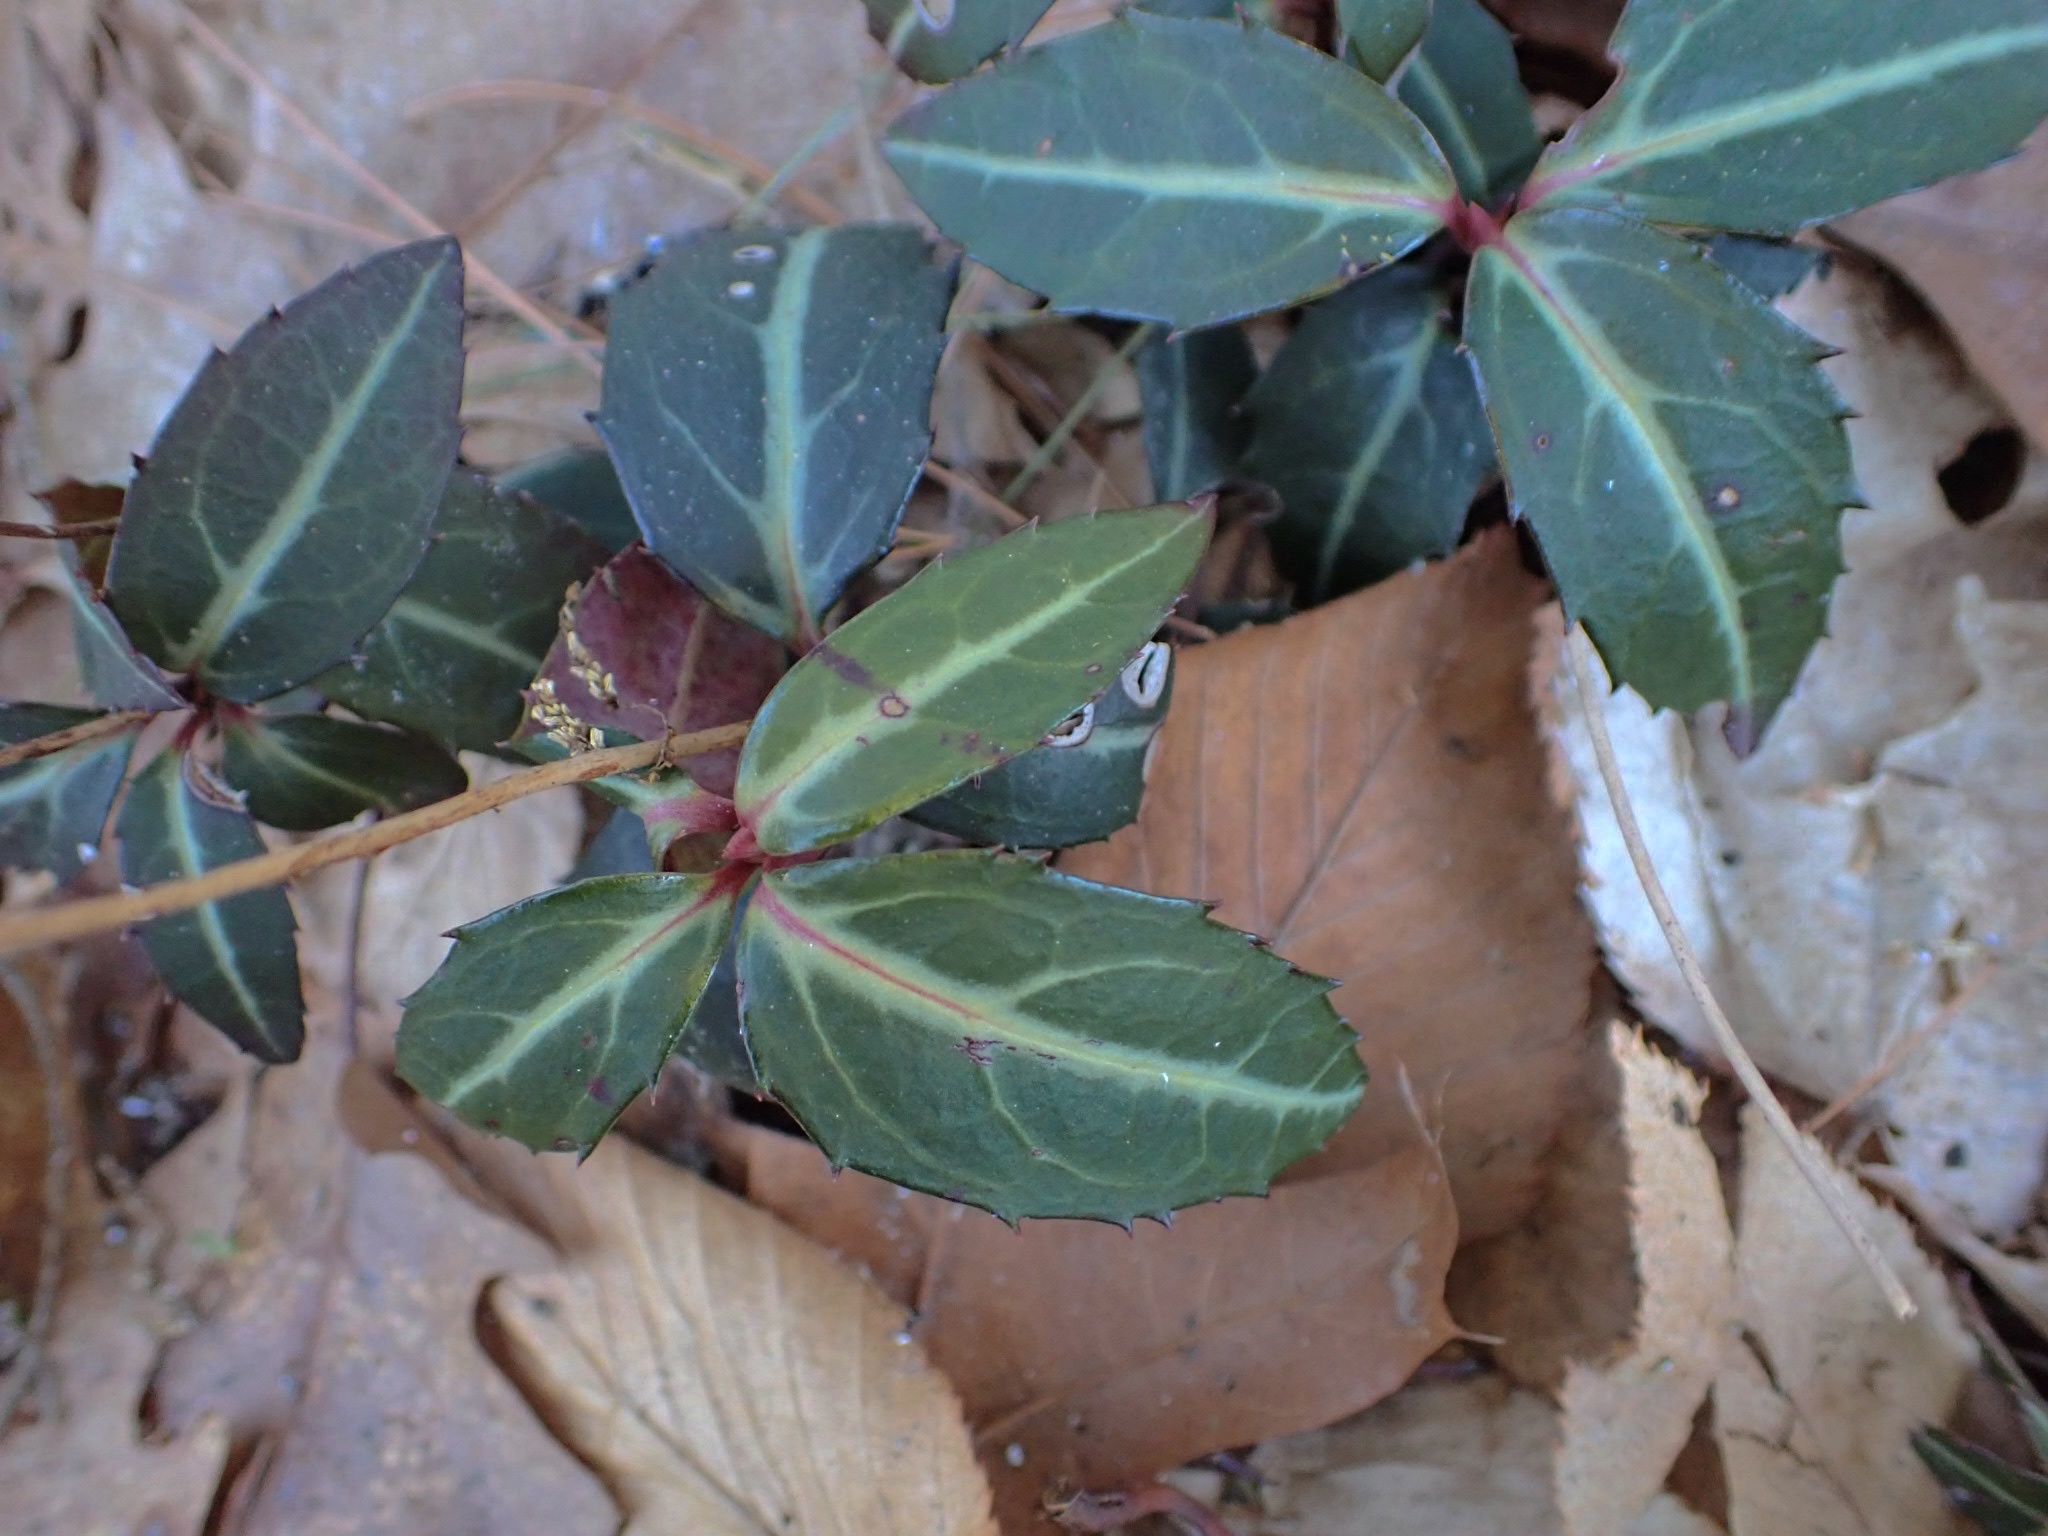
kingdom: Plantae
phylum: Tracheophyta
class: Magnoliopsida
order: Ericales
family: Ericaceae
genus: Chimaphila
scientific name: Chimaphila maculata
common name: Spotted pipsissewa
